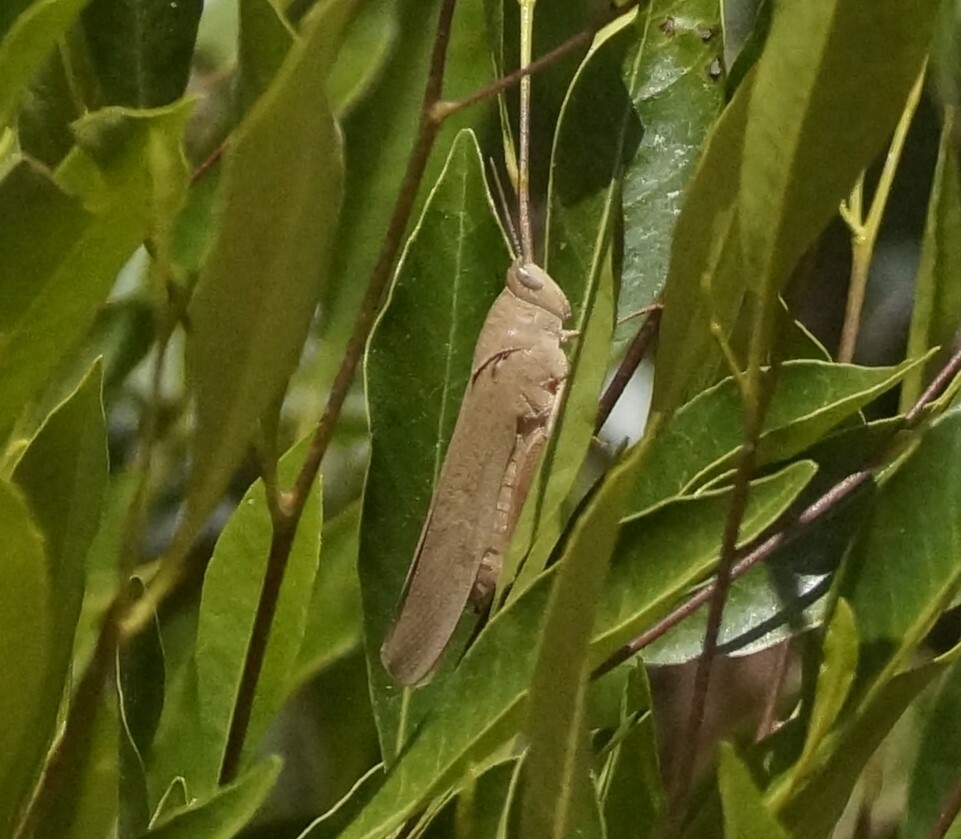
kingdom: Animalia
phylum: Arthropoda
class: Insecta
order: Orthoptera
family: Acrididae
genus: Goniaea
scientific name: Goniaea furcifera
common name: Tropical gumleaf grasshopper
